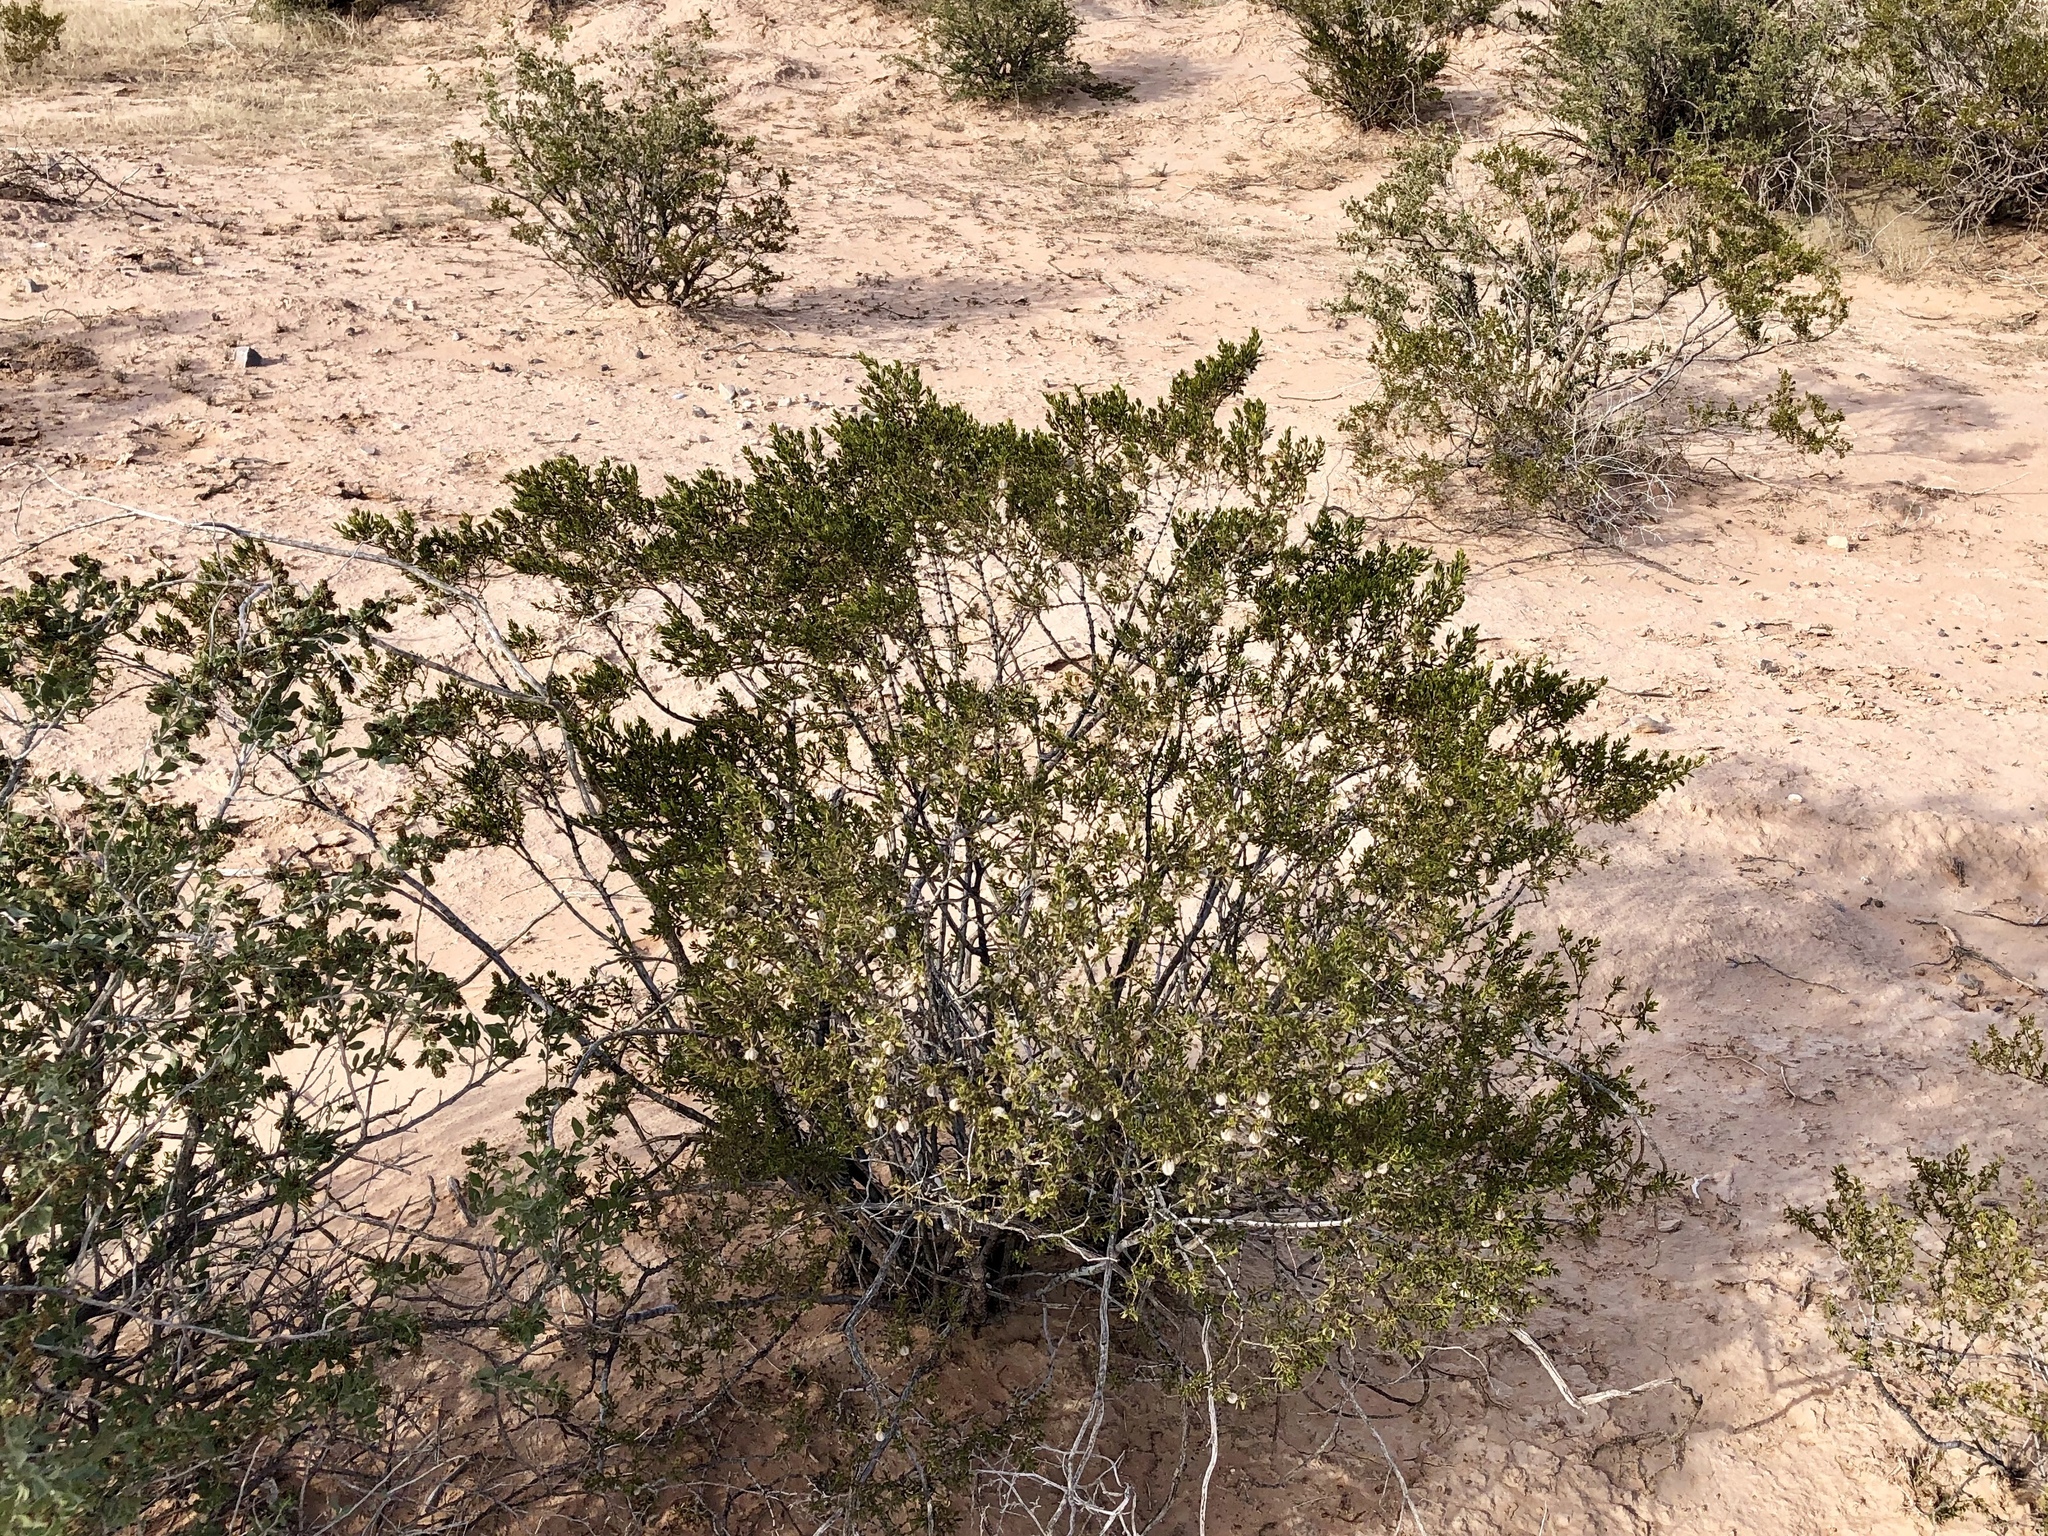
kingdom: Plantae
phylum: Tracheophyta
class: Magnoliopsida
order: Zygophyllales
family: Zygophyllaceae
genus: Larrea
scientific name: Larrea tridentata
